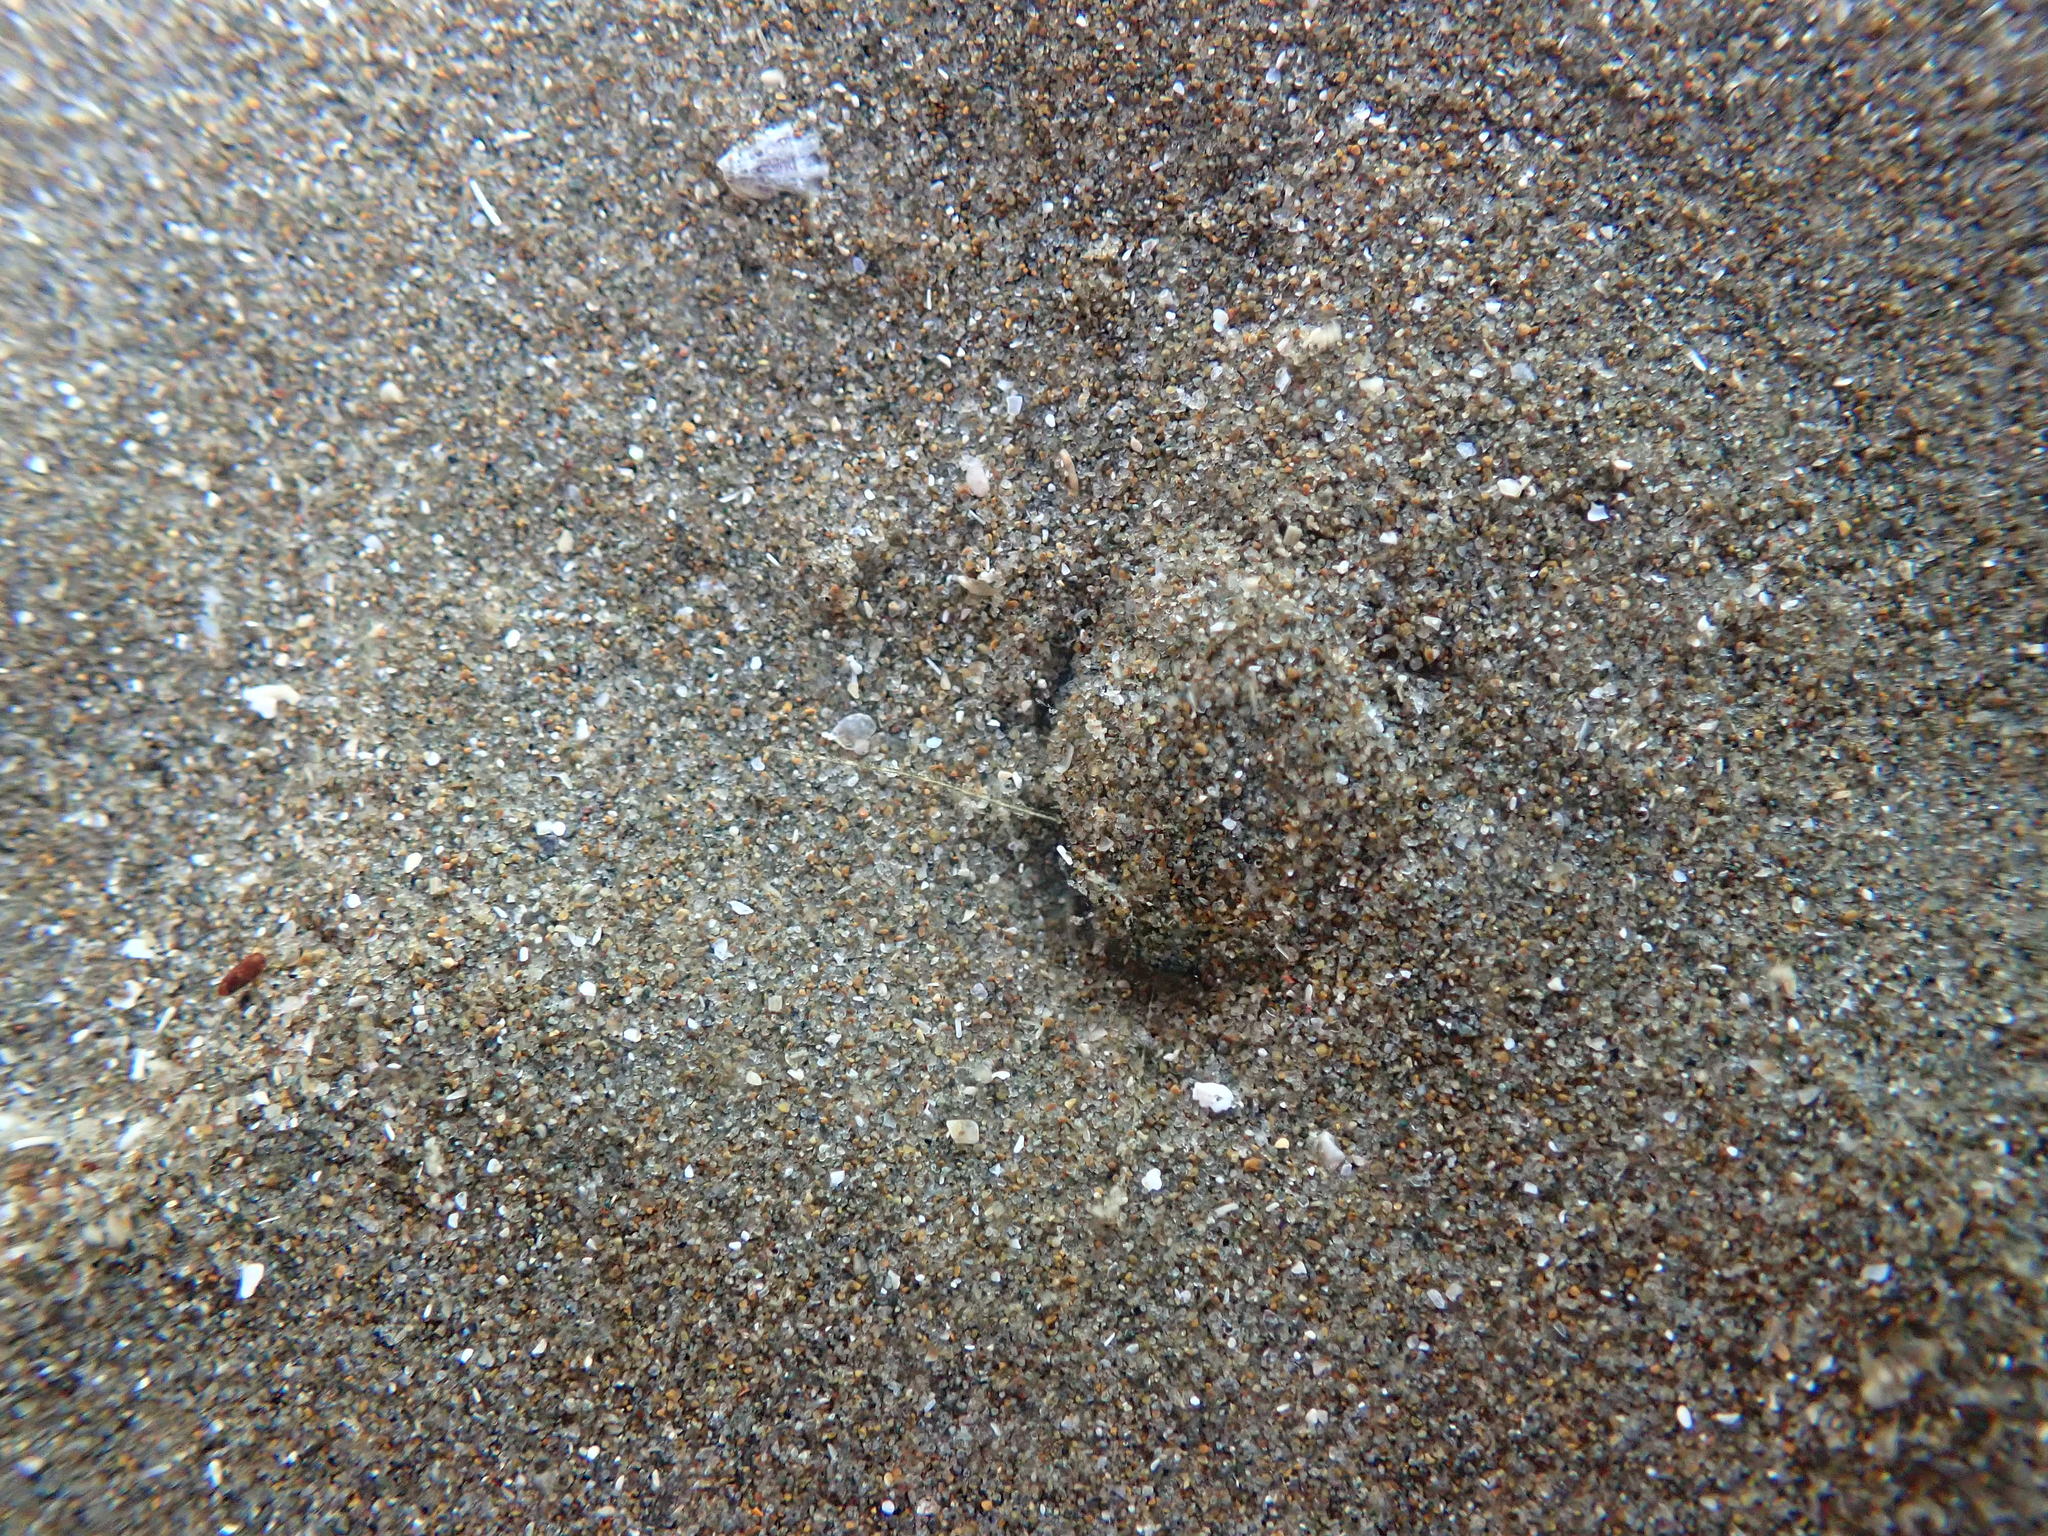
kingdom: Animalia
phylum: Arthropoda
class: Malacostraca
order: Decapoda
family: Paguridae
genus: Pagurus
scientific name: Pagurus novizealandiae
